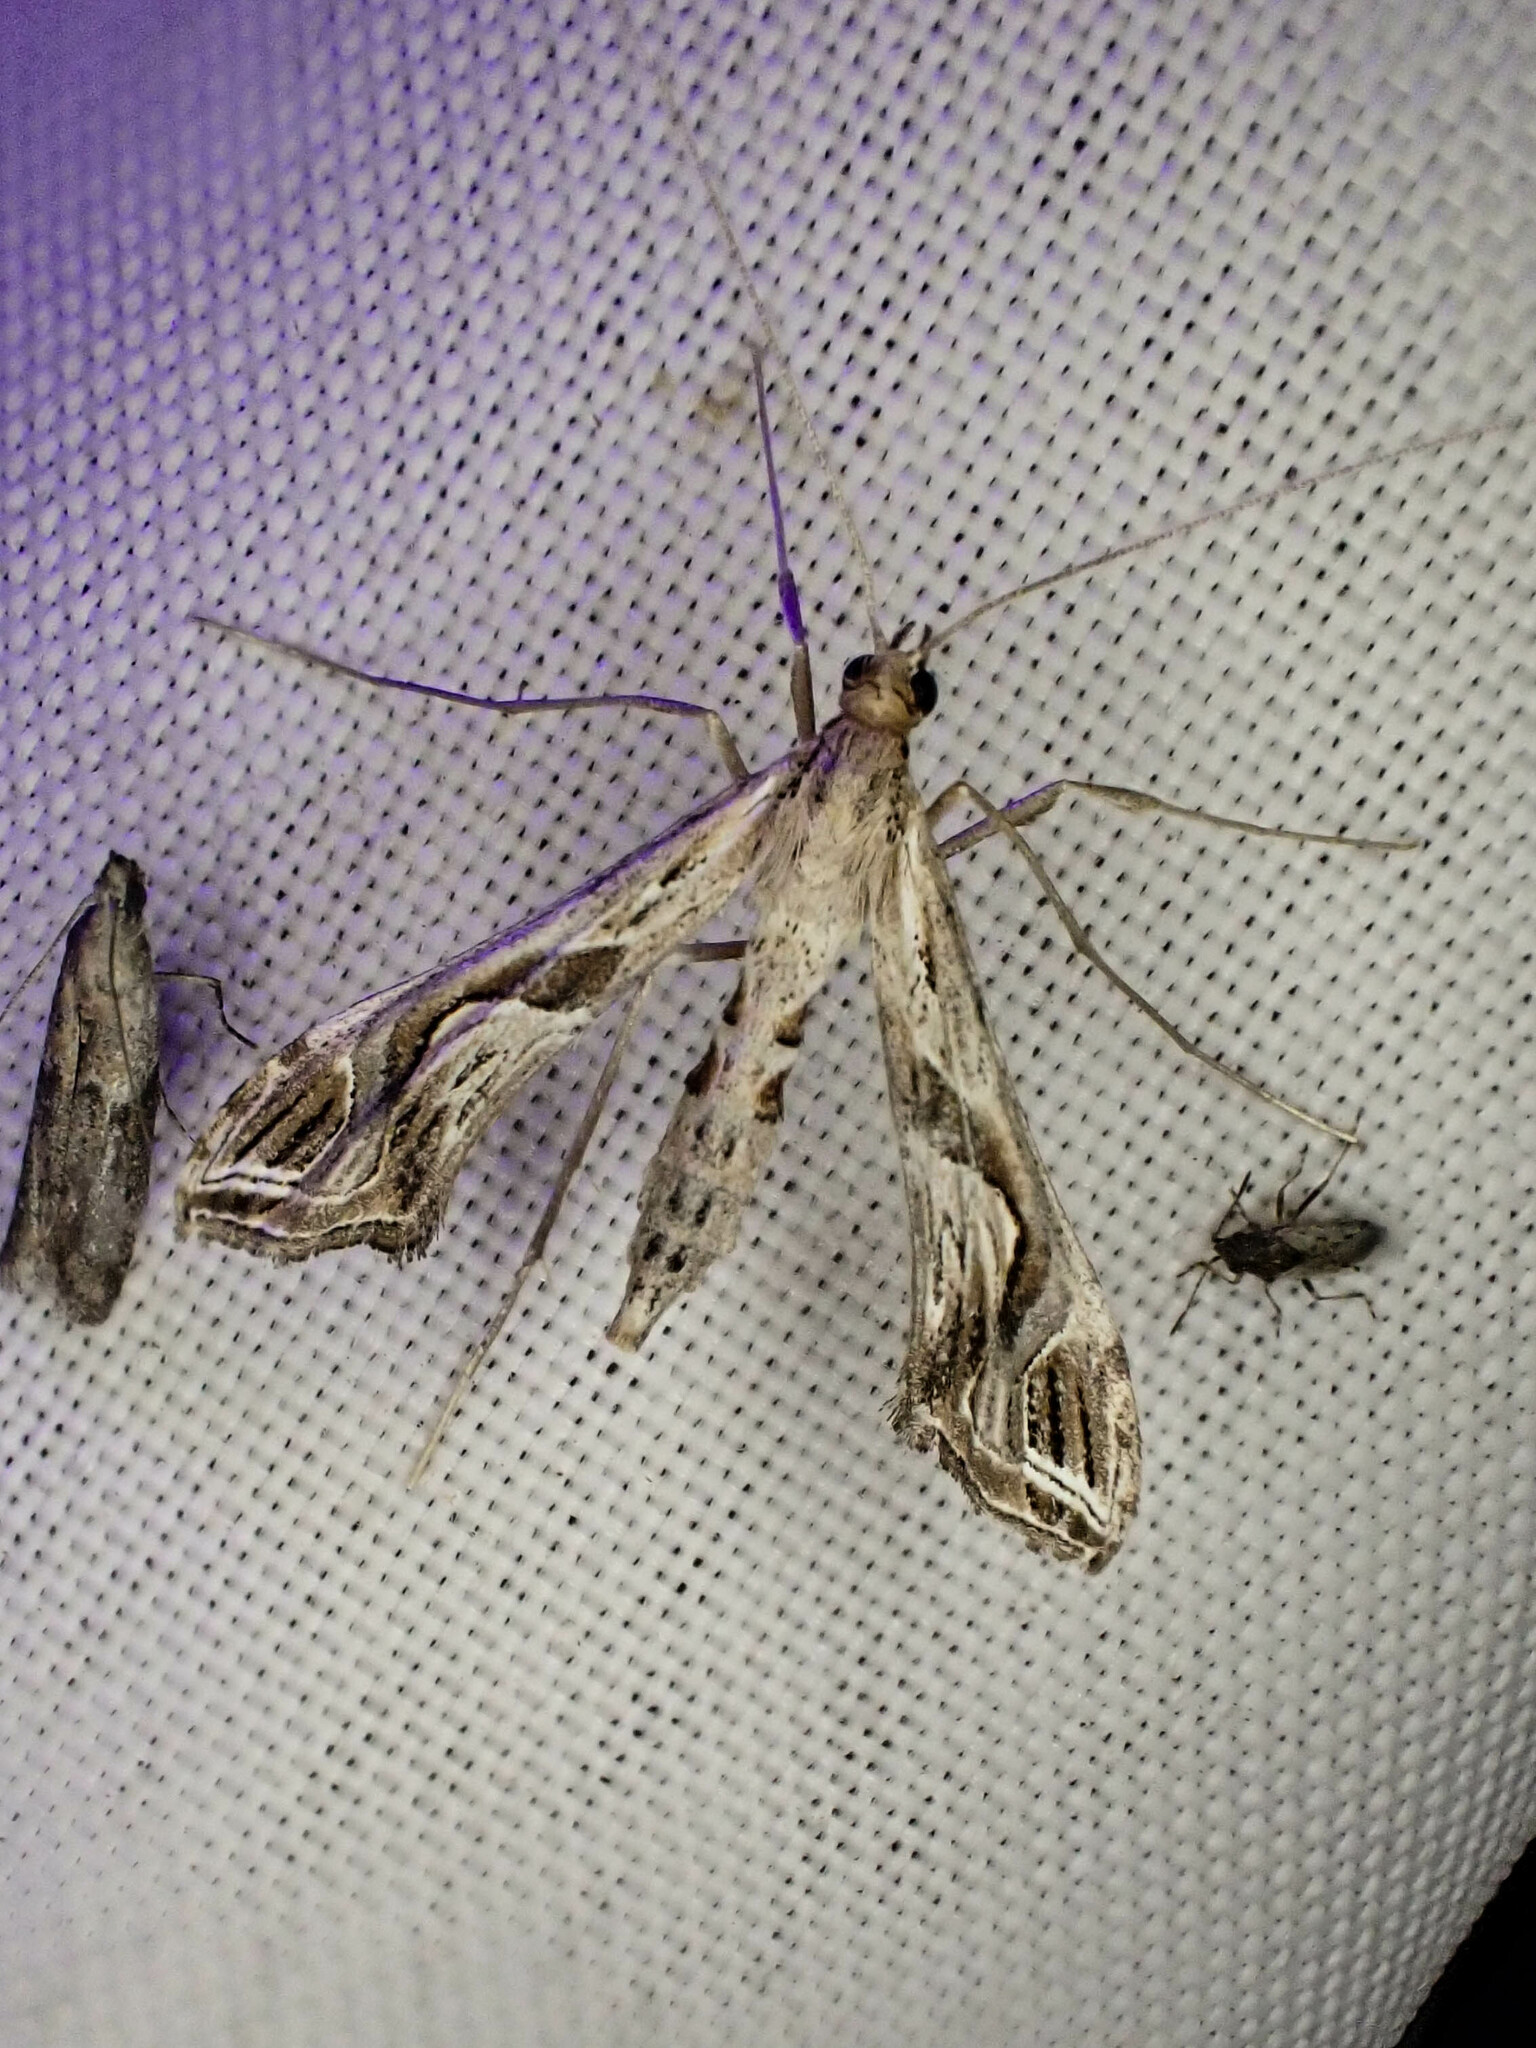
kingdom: Animalia
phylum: Arthropoda
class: Insecta
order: Lepidoptera
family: Crambidae
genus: Lineodes
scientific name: Lineodes integra
